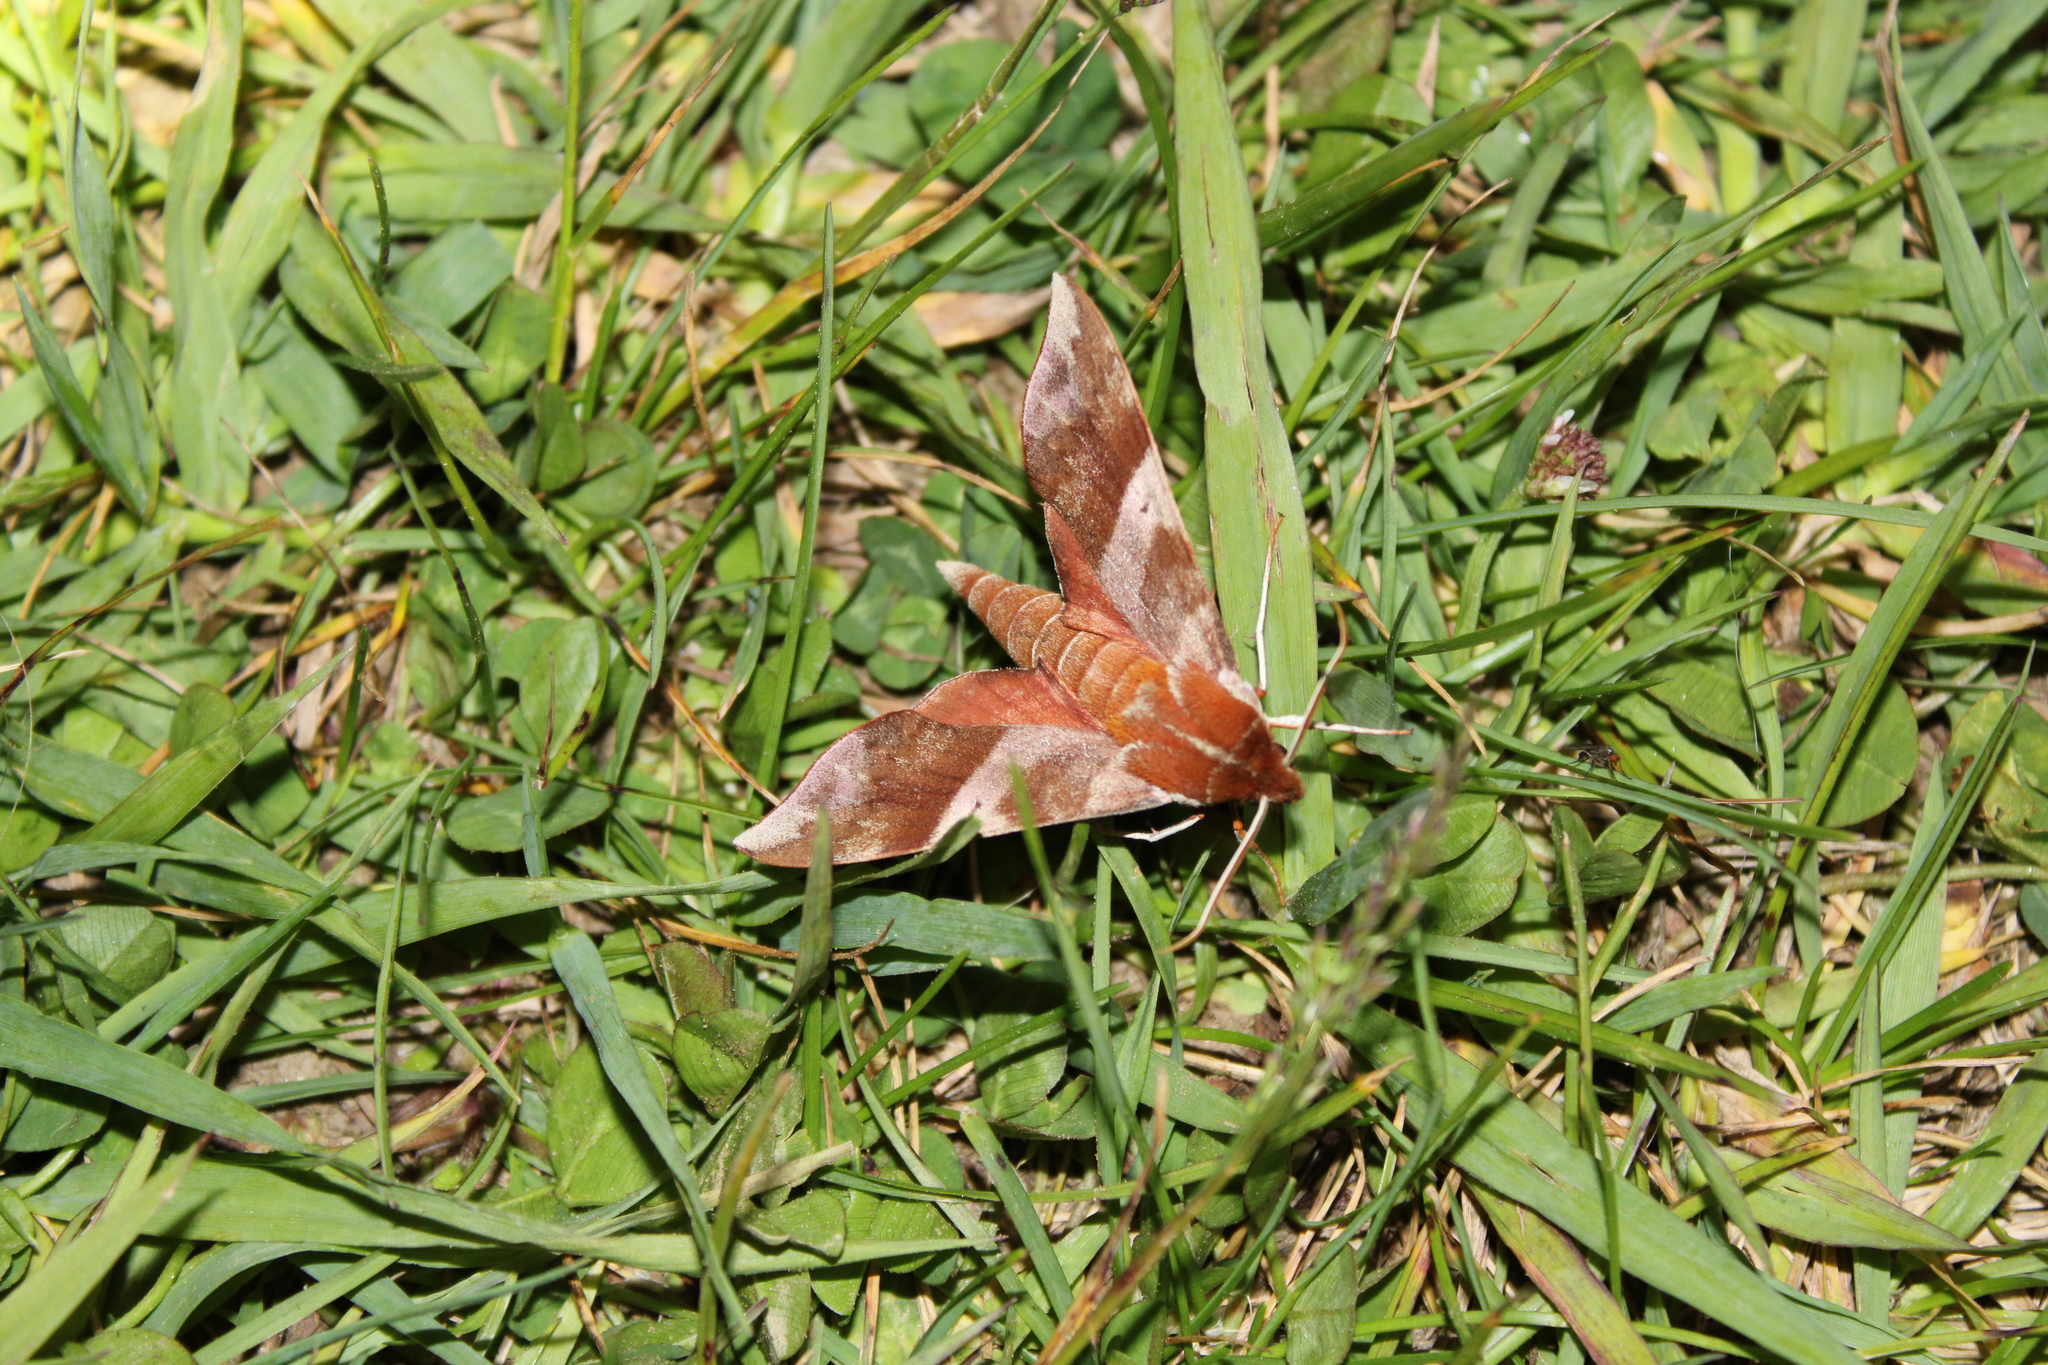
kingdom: Animalia
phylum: Arthropoda
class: Insecta
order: Lepidoptera
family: Sphingidae
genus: Darapsa
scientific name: Darapsa choerilus
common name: Azalea sphinx
